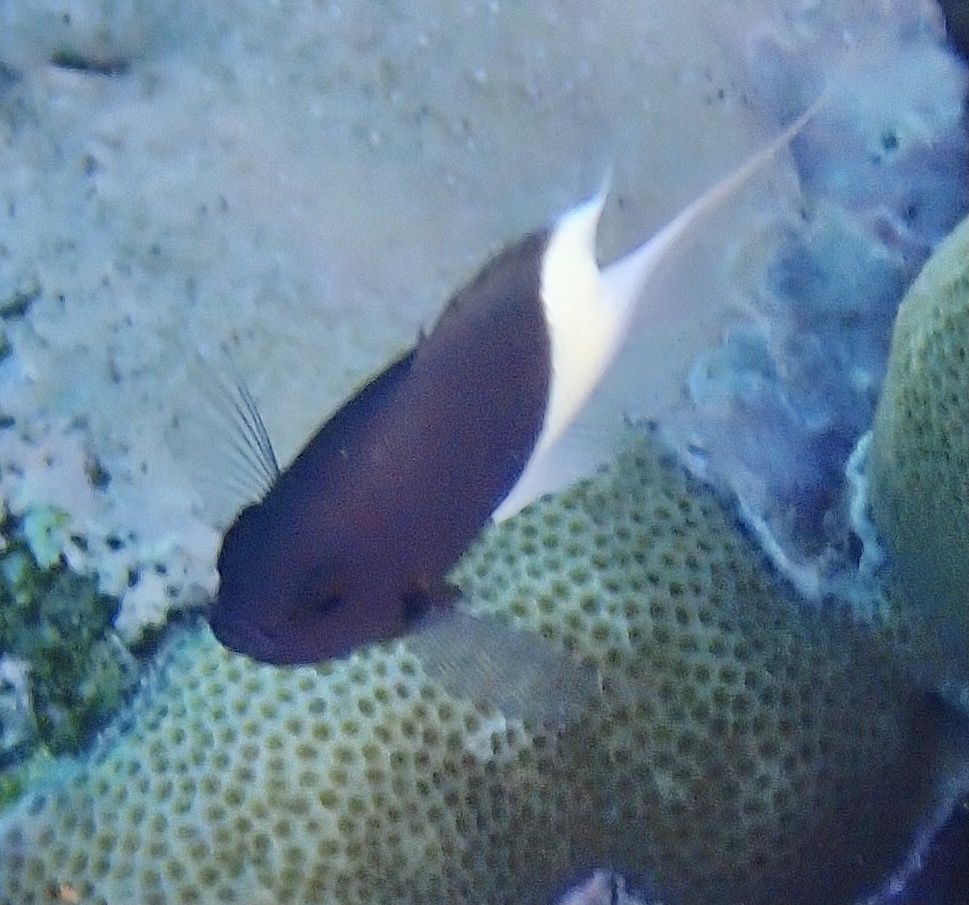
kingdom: Animalia
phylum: Chordata
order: Perciformes
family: Pomacentridae
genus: Chromis
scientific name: Chromis dimidiata
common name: Half-and-half chromis
